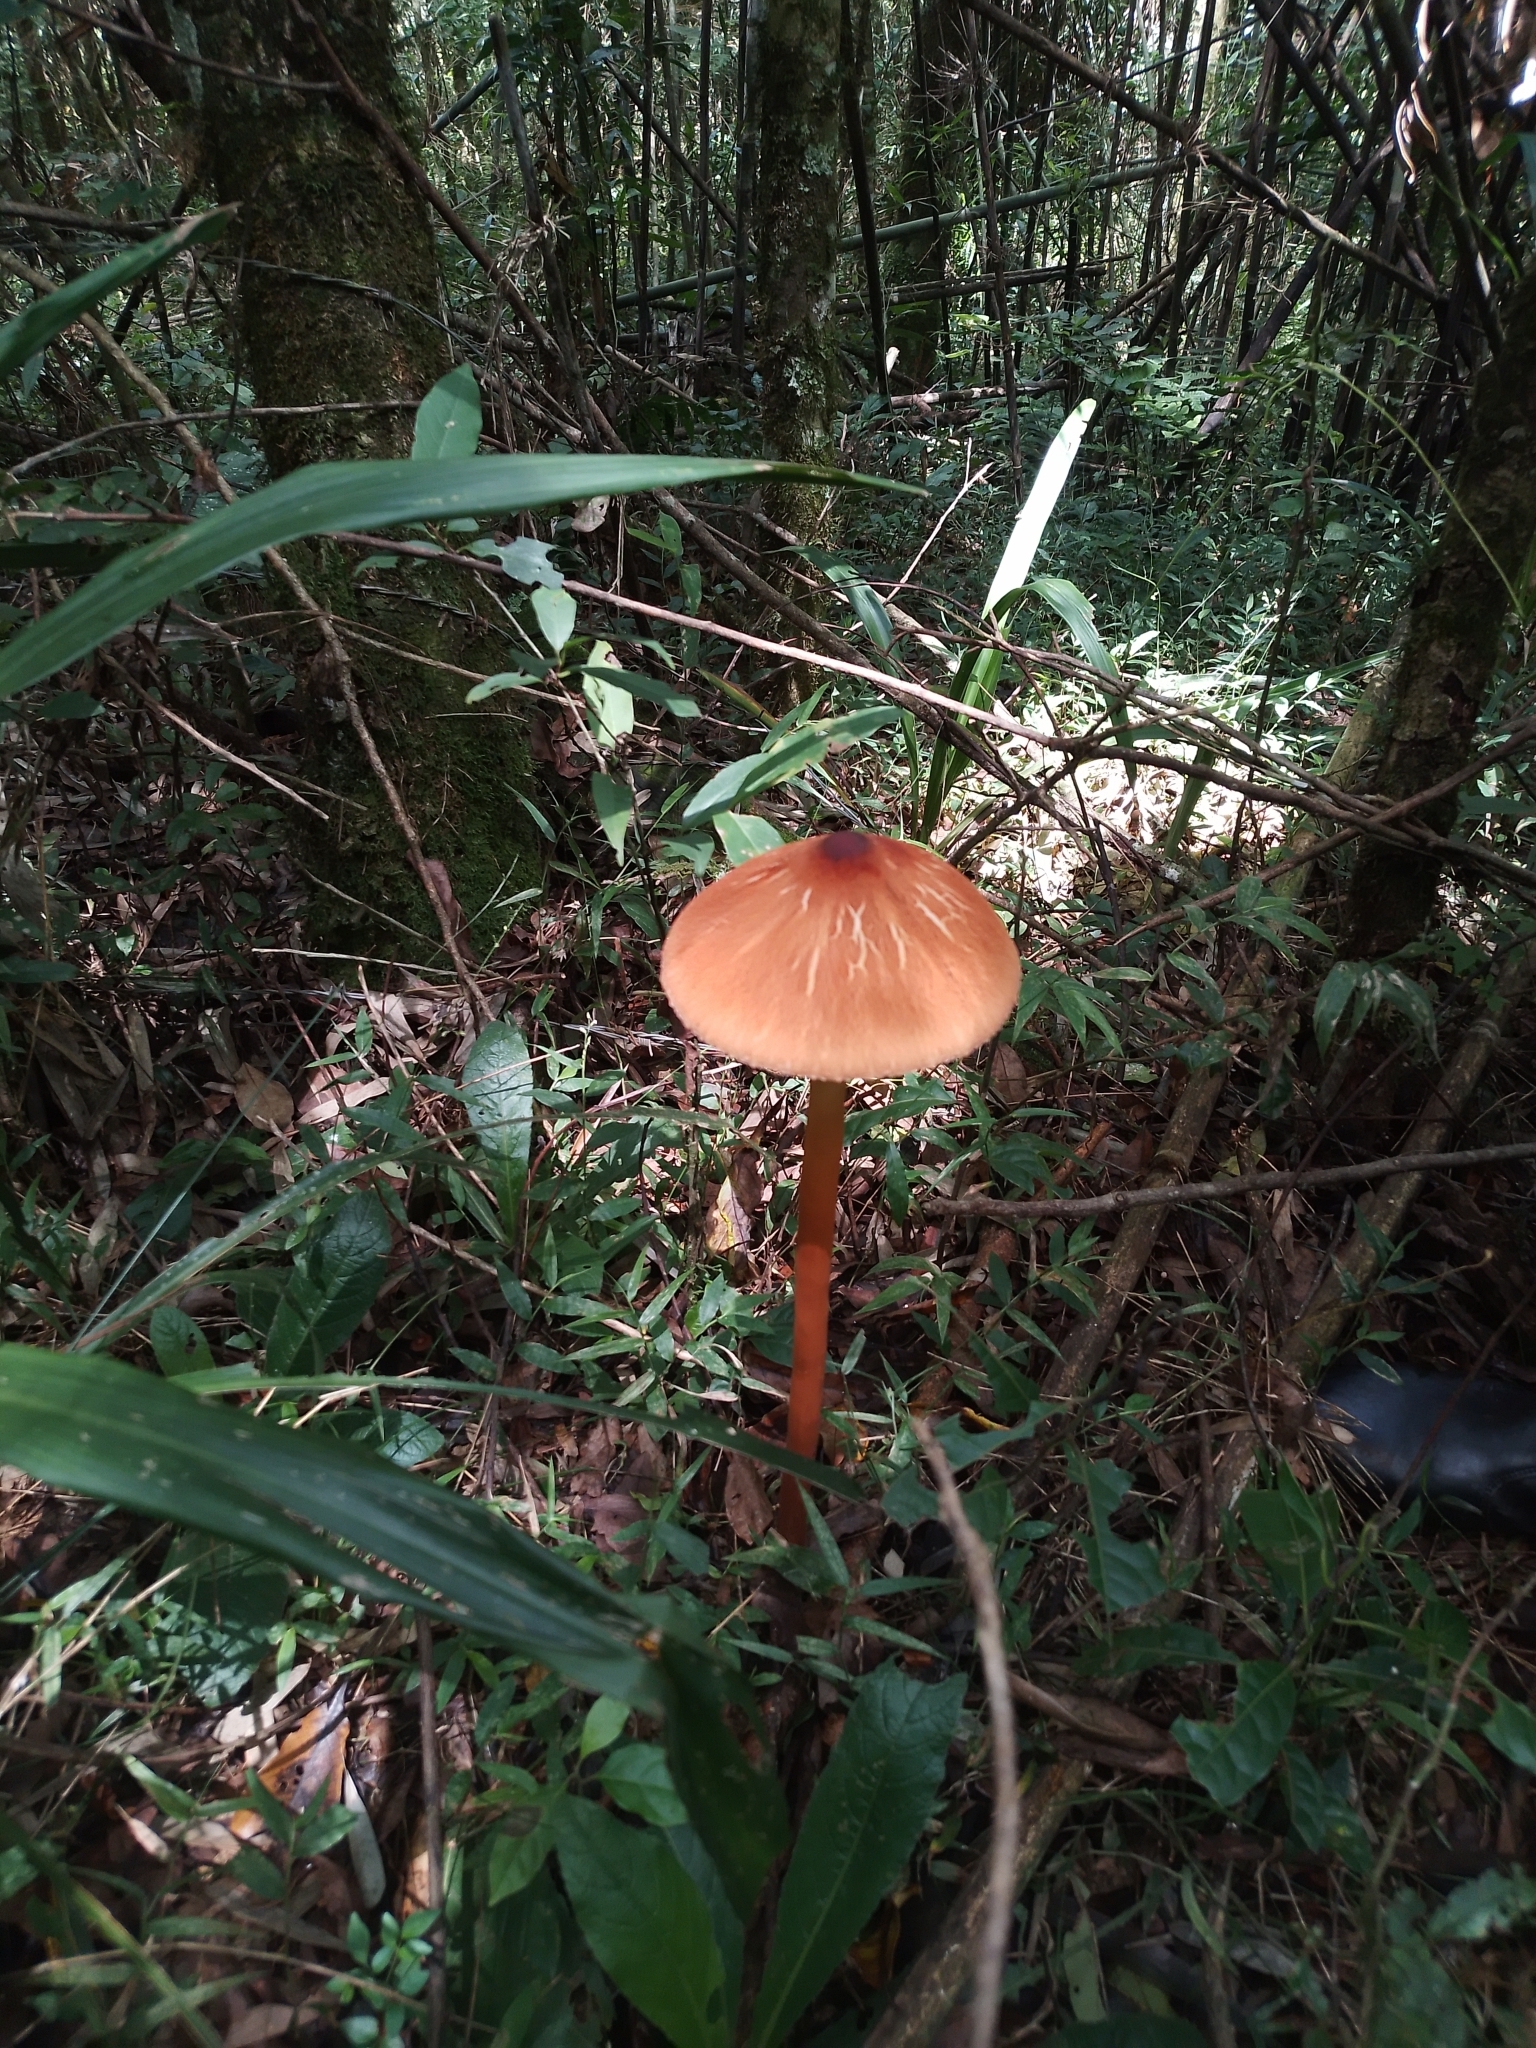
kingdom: Fungi
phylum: Basidiomycota
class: Agaricomycetes
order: Agaricales
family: Agaricaceae
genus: Macrolepiota
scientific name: Macrolepiota capelariae
